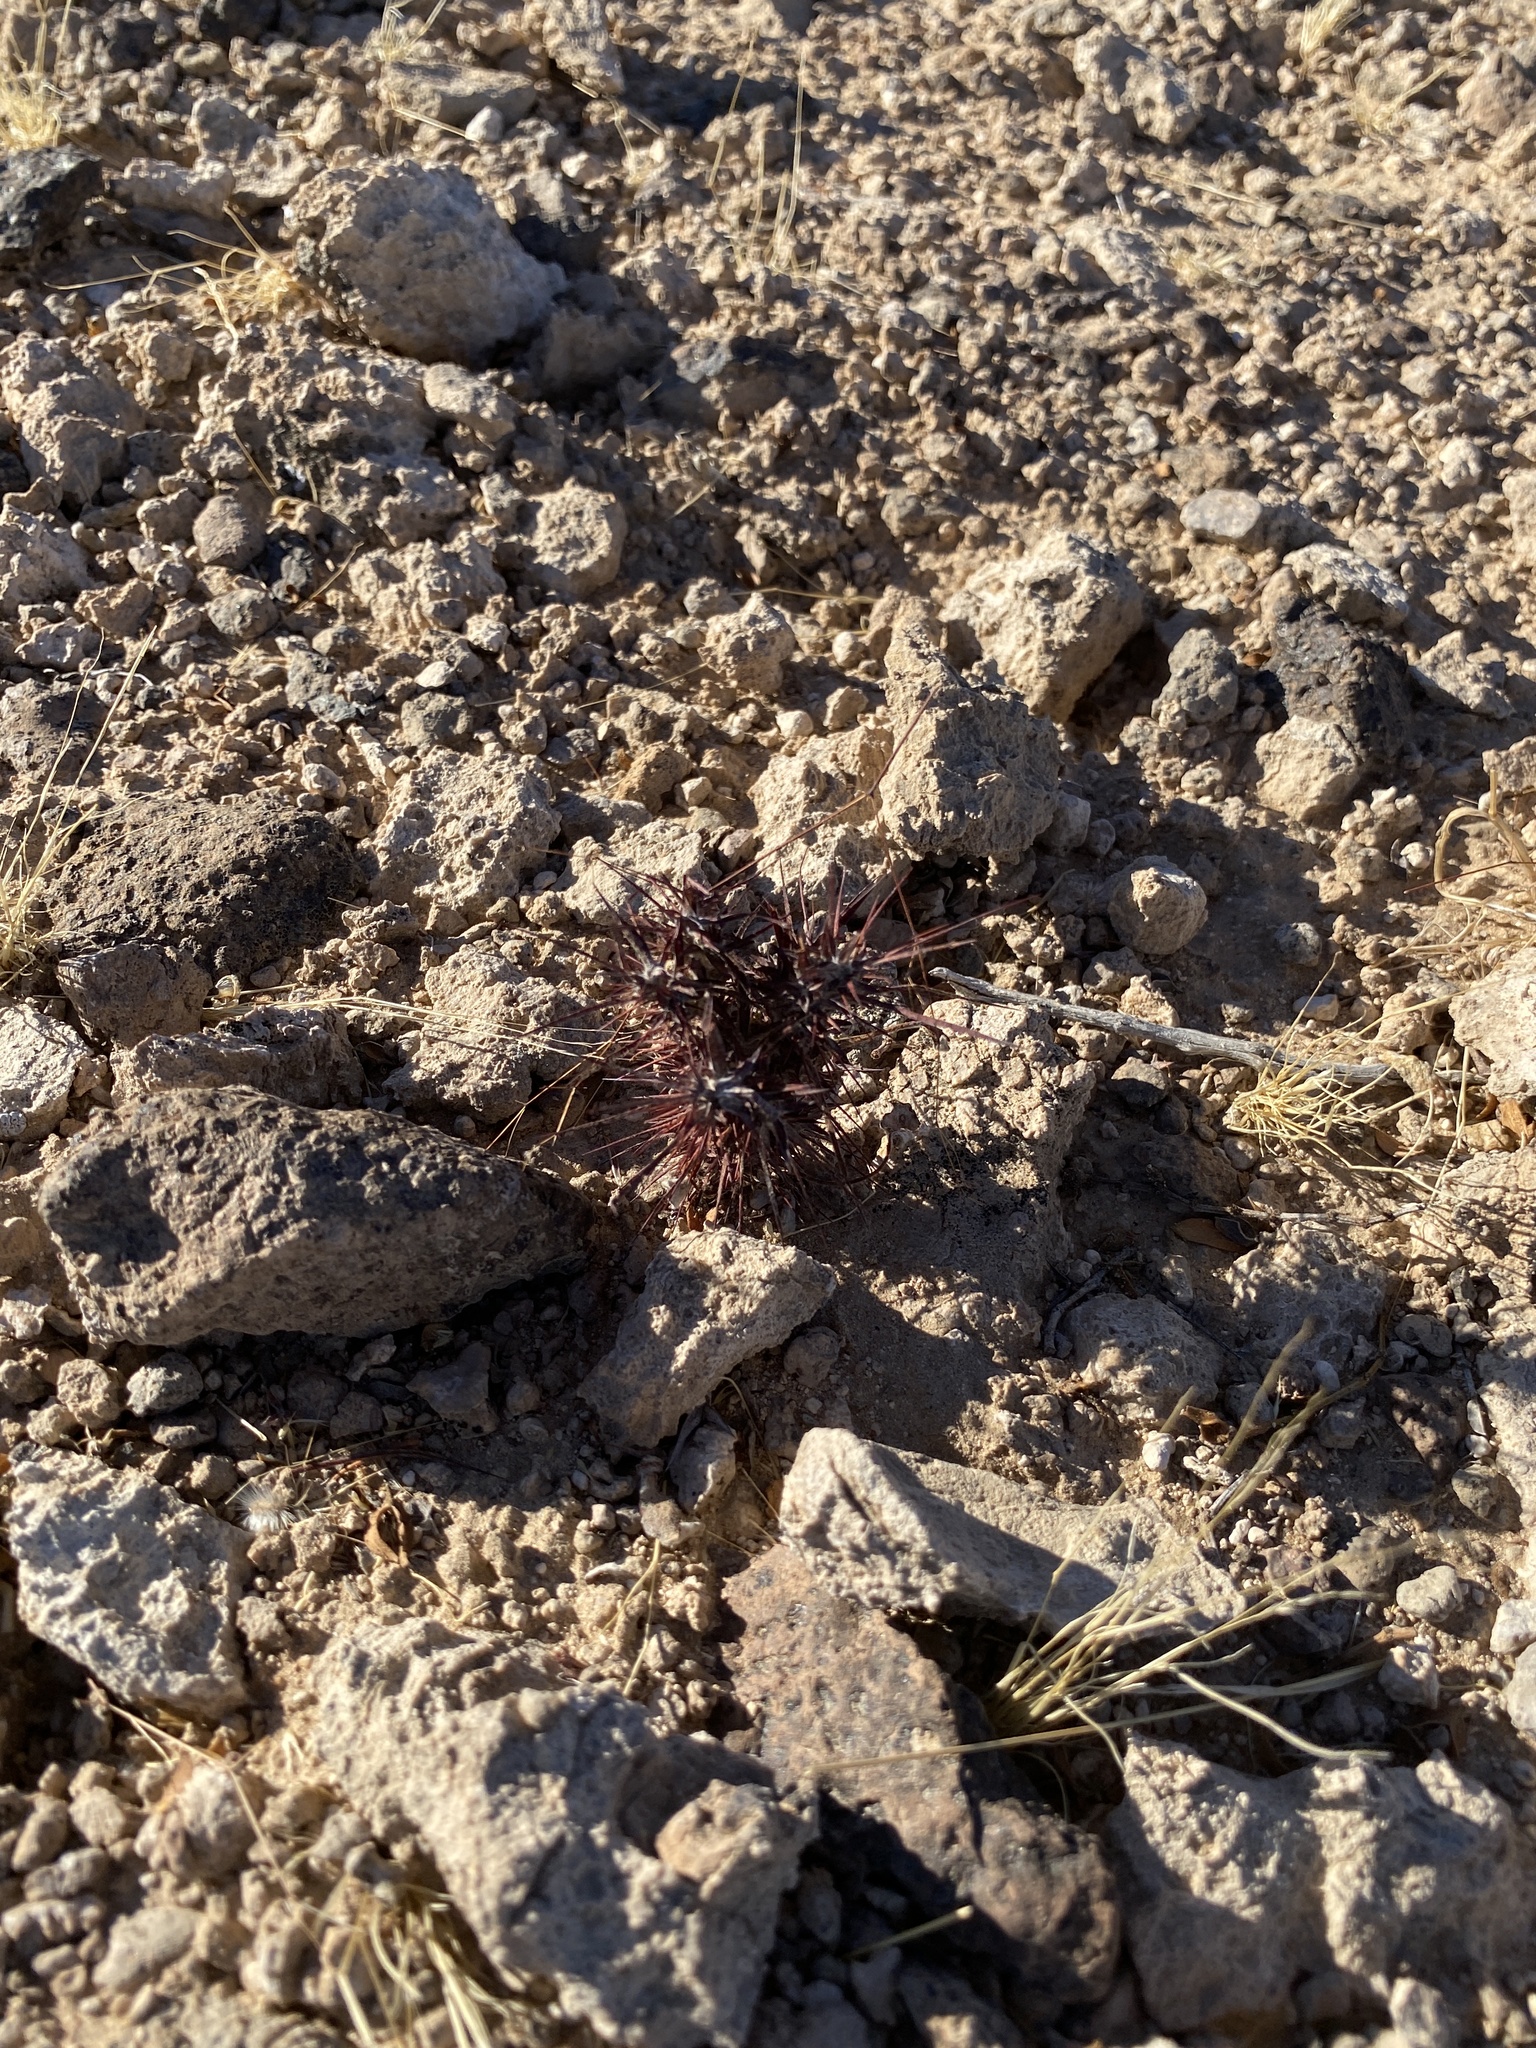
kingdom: Plantae
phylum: Tracheophyta
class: Magnoliopsida
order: Caryophyllales
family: Polygonaceae
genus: Chorizanthe
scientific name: Chorizanthe rigida
